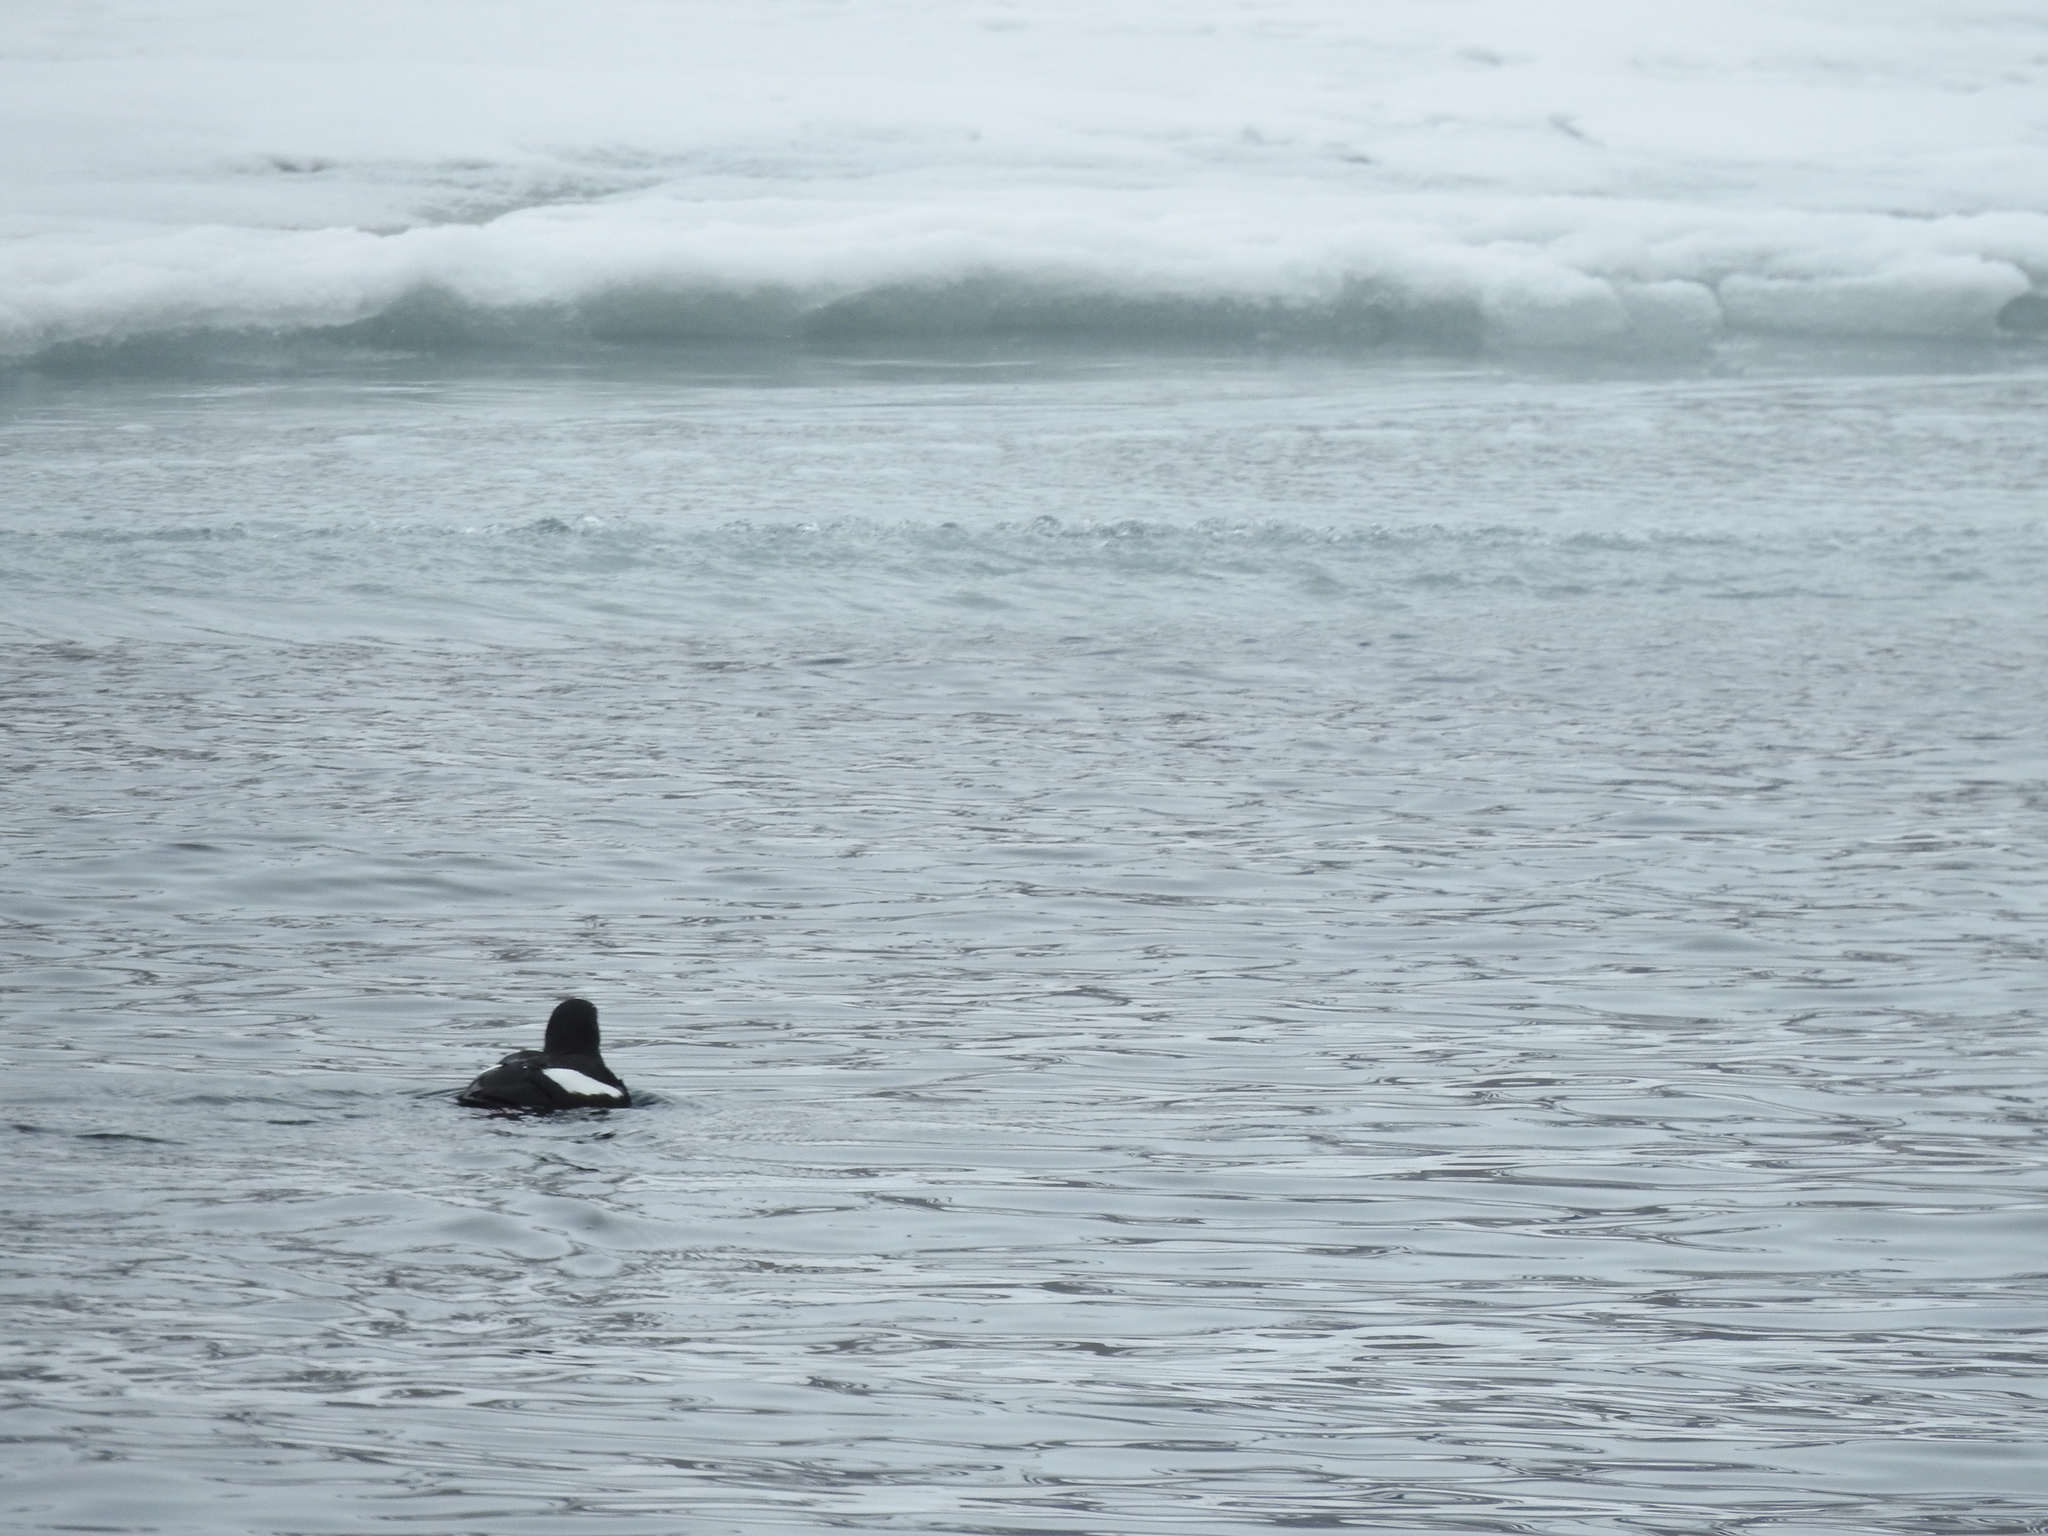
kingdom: Animalia
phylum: Chordata
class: Aves
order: Charadriiformes
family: Alcidae
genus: Cepphus
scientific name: Cepphus grylle
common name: Black guillemot
